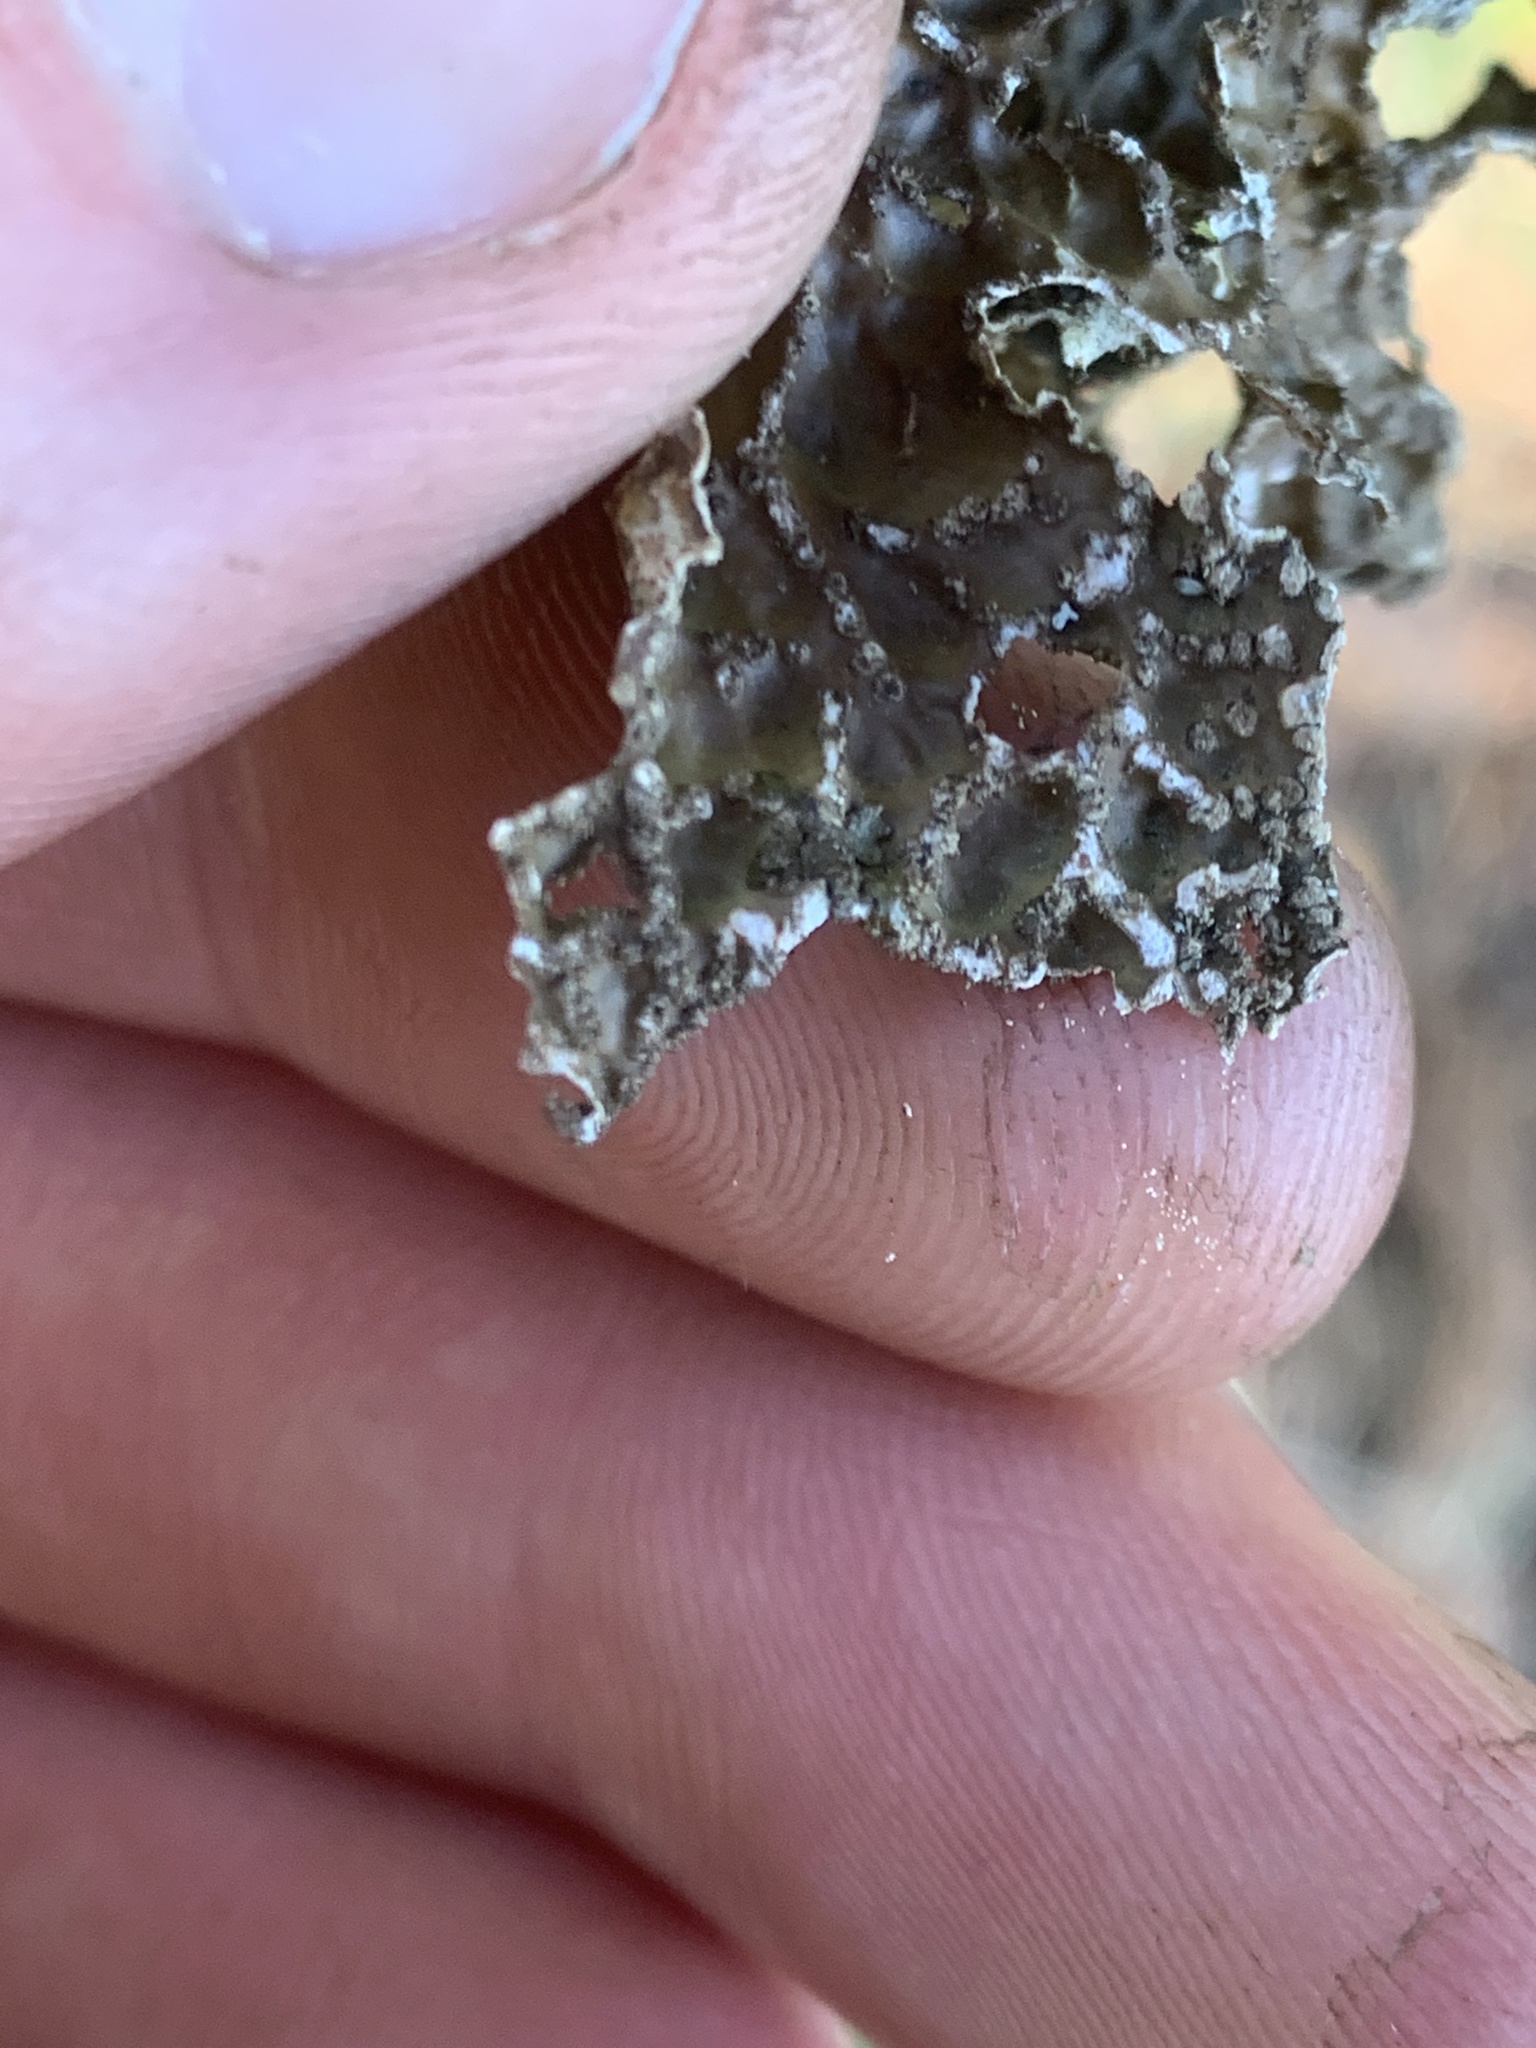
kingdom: Fungi
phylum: Ascomycota
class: Lecanoromycetes
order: Peltigerales
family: Lobariaceae
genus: Lobaria
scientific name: Lobaria anomala
